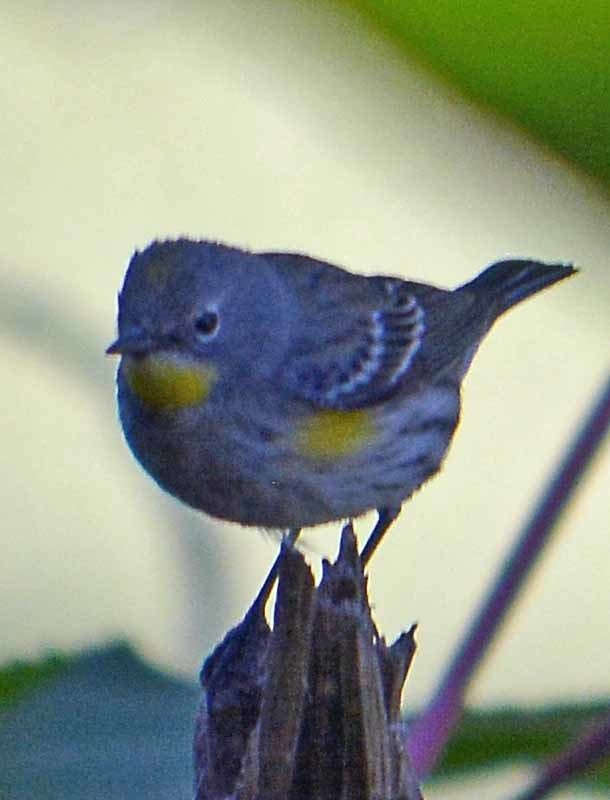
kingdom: Animalia
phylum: Chordata
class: Aves
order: Passeriformes
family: Parulidae
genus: Setophaga
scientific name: Setophaga coronata
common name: Myrtle warbler
